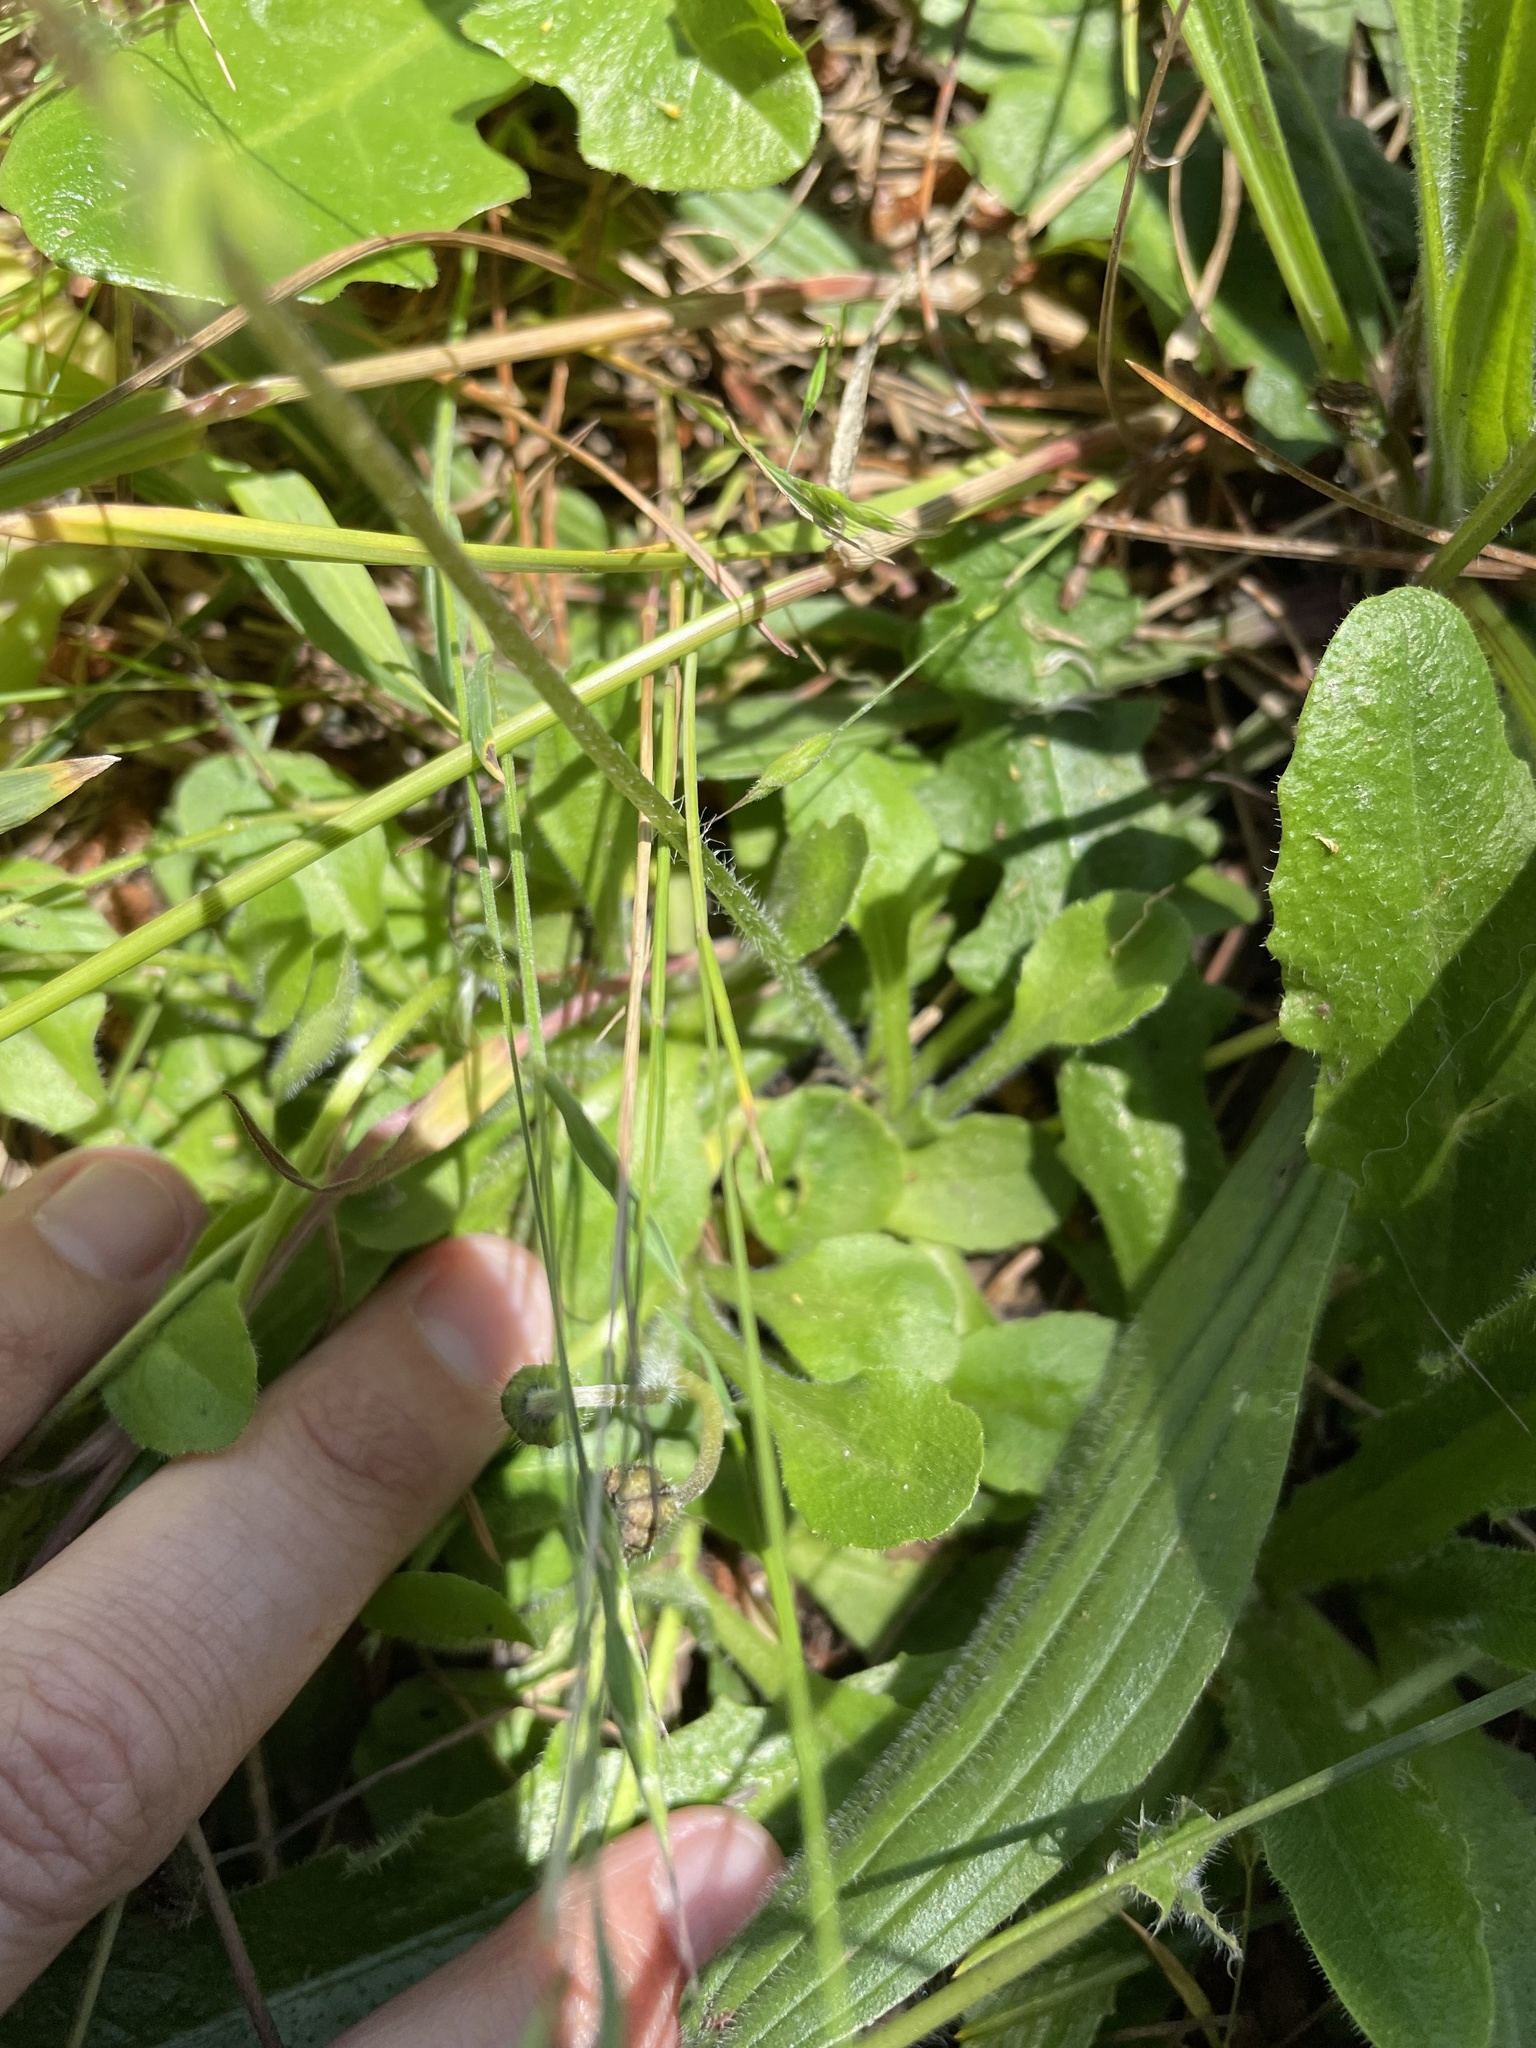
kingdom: Plantae
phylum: Tracheophyta
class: Magnoliopsida
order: Asterales
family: Asteraceae
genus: Bellis
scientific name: Bellis perennis
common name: Lawndaisy
